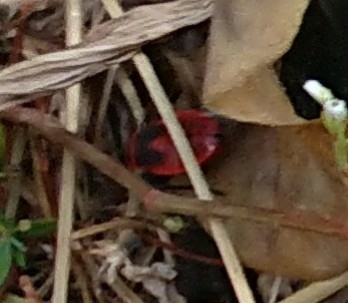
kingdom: Animalia
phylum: Arthropoda
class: Insecta
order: Hemiptera
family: Pyrrhocoridae
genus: Pyrrhocoris
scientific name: Pyrrhocoris apterus
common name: Firebug
